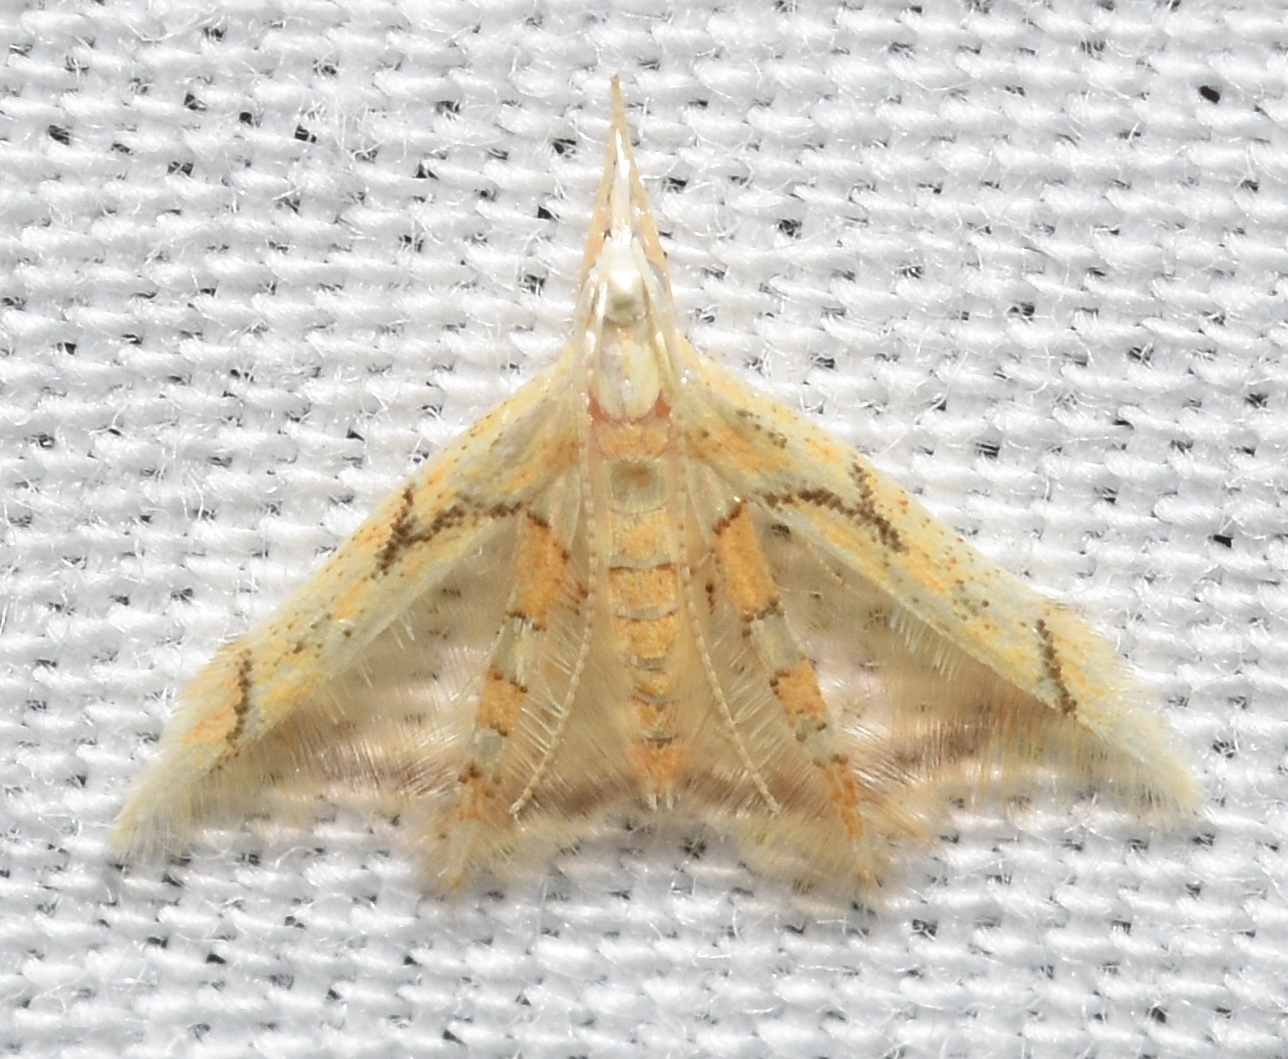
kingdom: Animalia
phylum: Arthropoda
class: Insecta
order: Lepidoptera
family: Epimarptidae
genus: Idioglossa
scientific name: Idioglossa miraculosa
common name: Miraculous idiogloss moth
